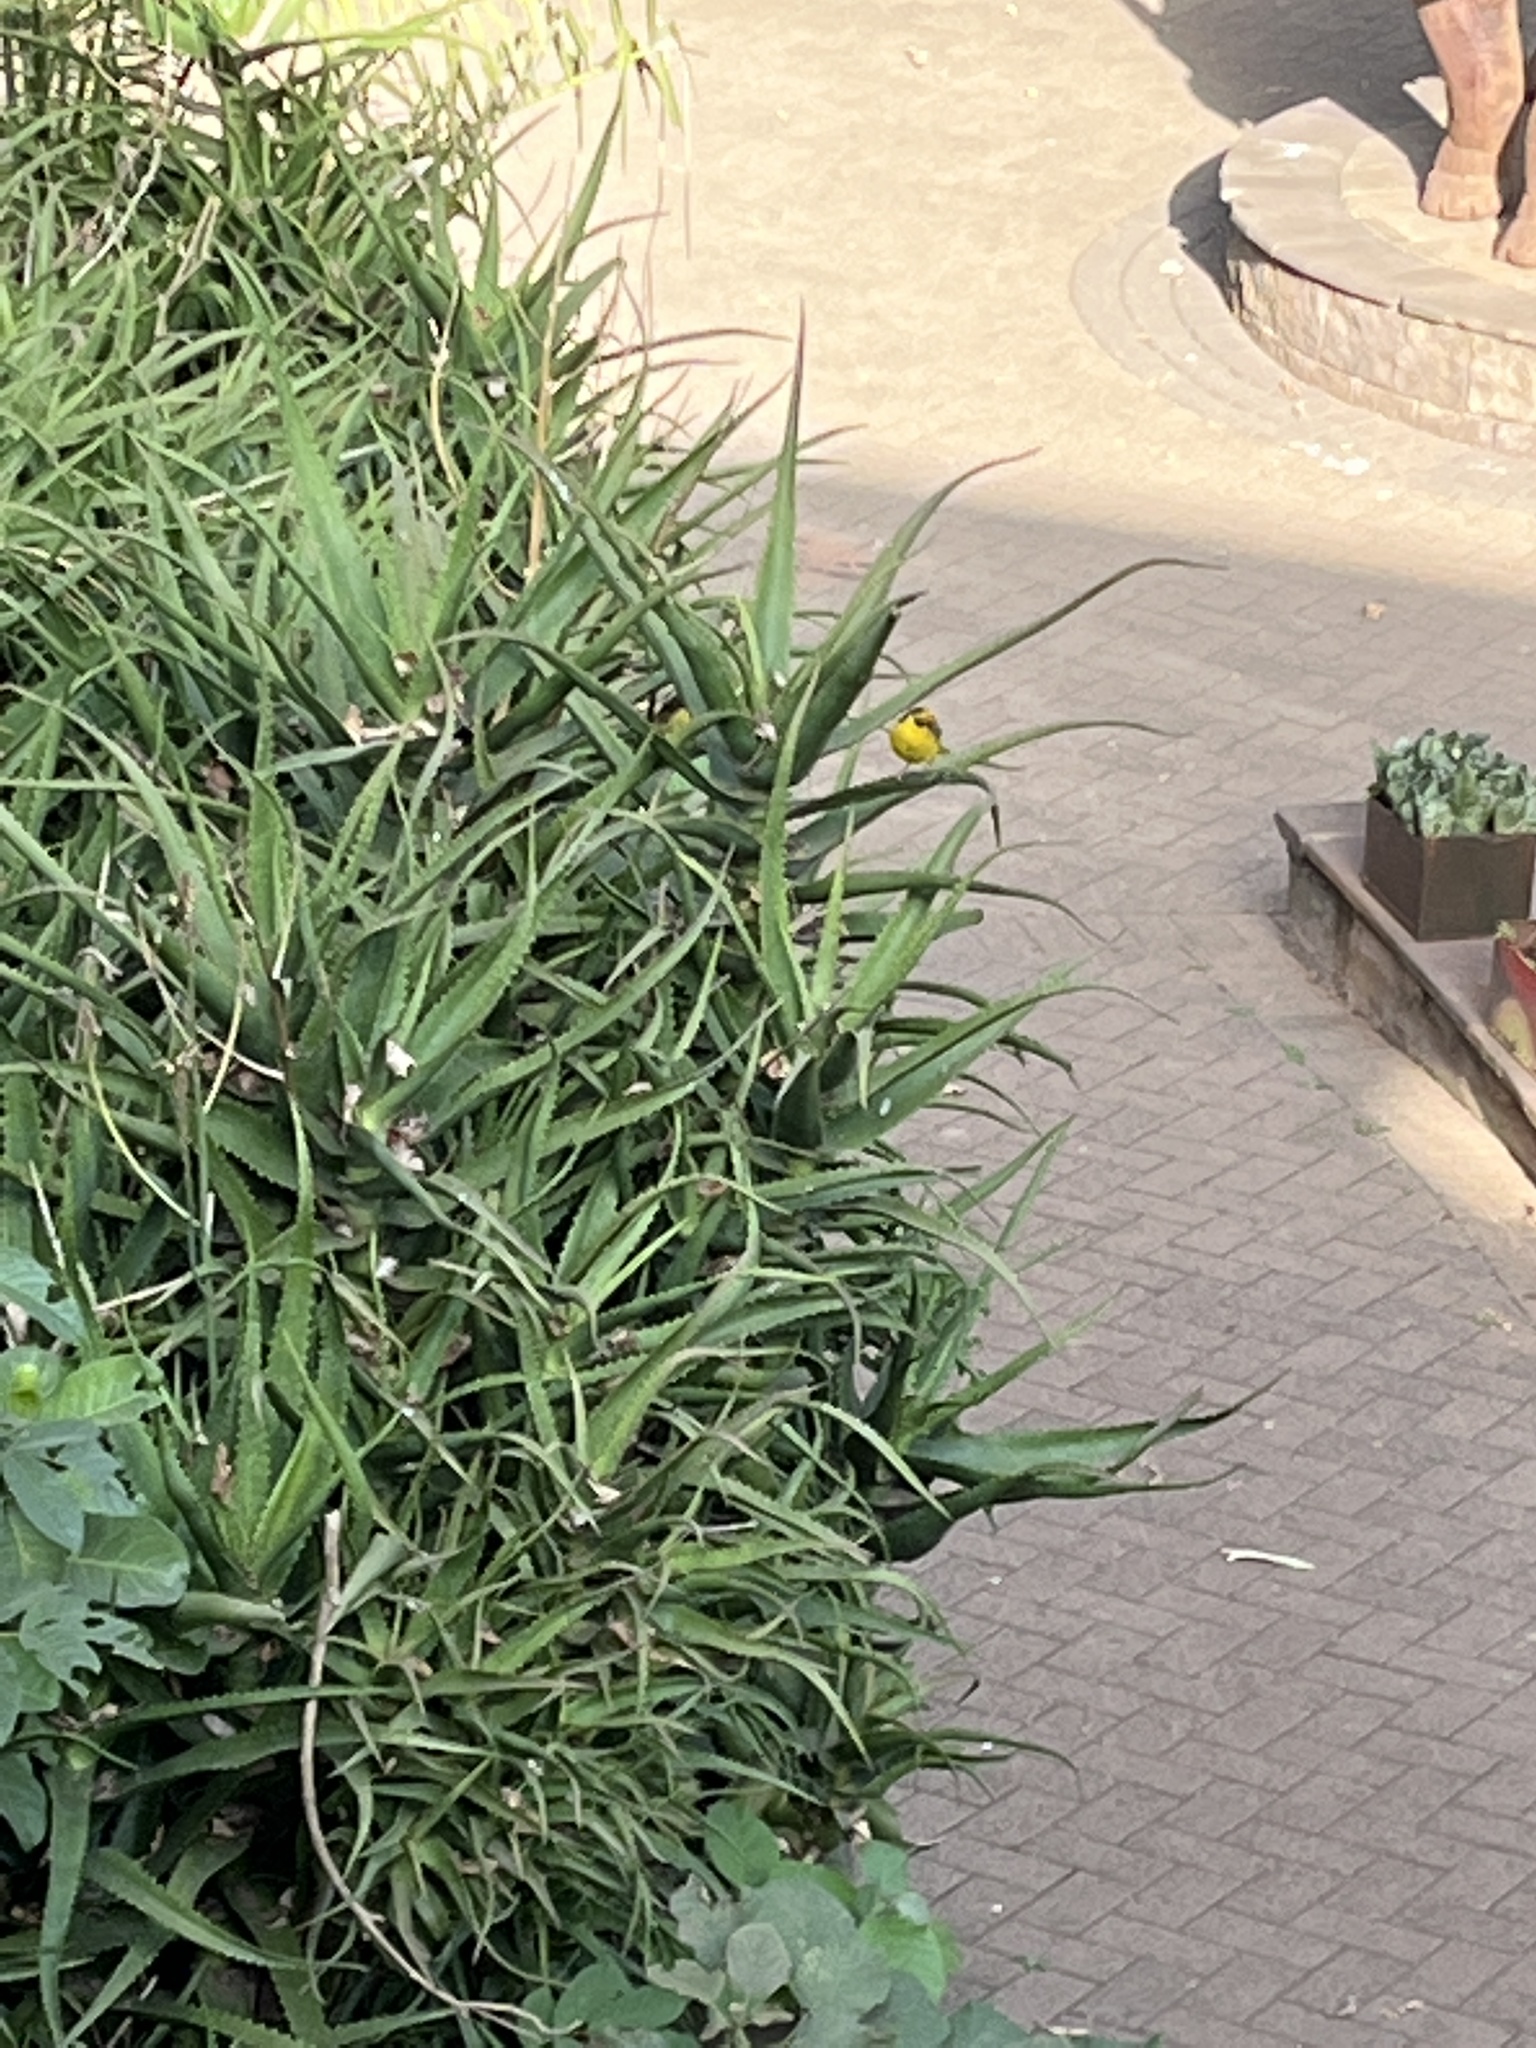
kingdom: Animalia
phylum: Chordata
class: Aves
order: Passeriformes
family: Ploceidae
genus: Ploceus
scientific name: Ploceus baglafecht
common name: Baglafecht weaver
